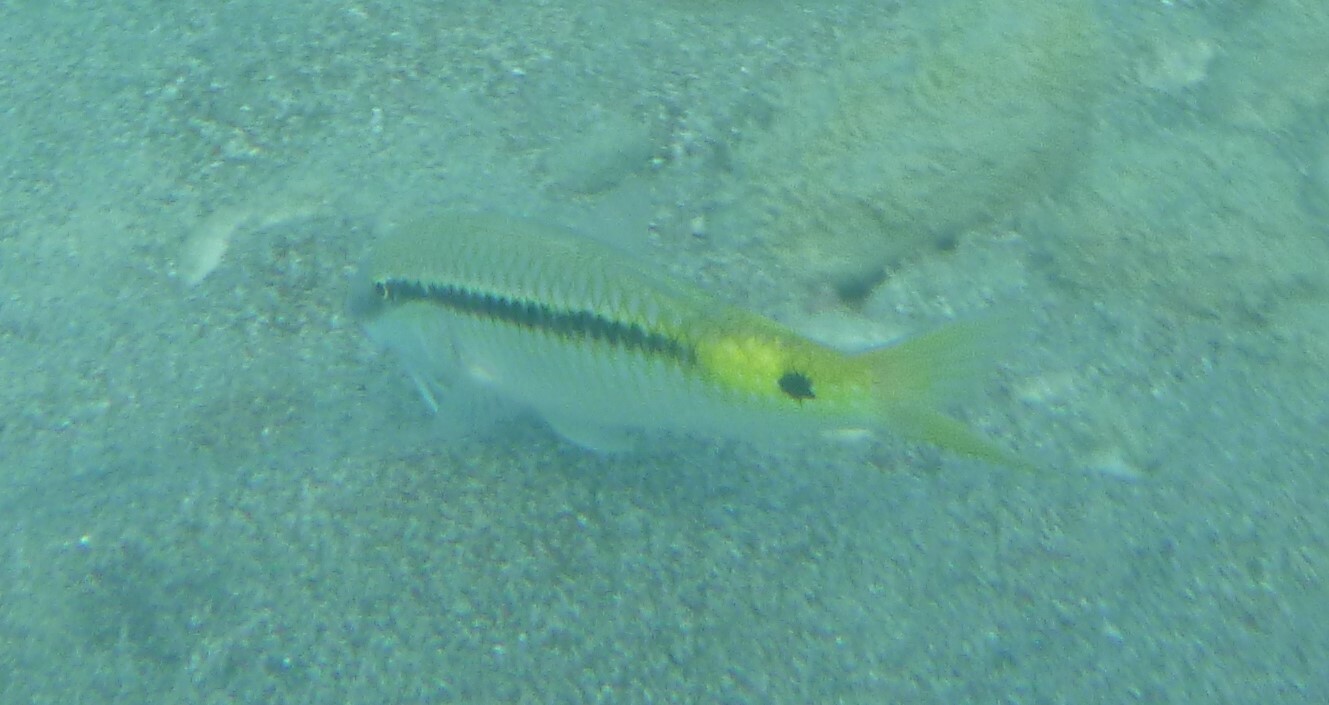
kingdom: Animalia
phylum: Chordata
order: Perciformes
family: Mullidae
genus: Parupeneus
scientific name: Parupeneus forsskali
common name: Red sea goatfish
